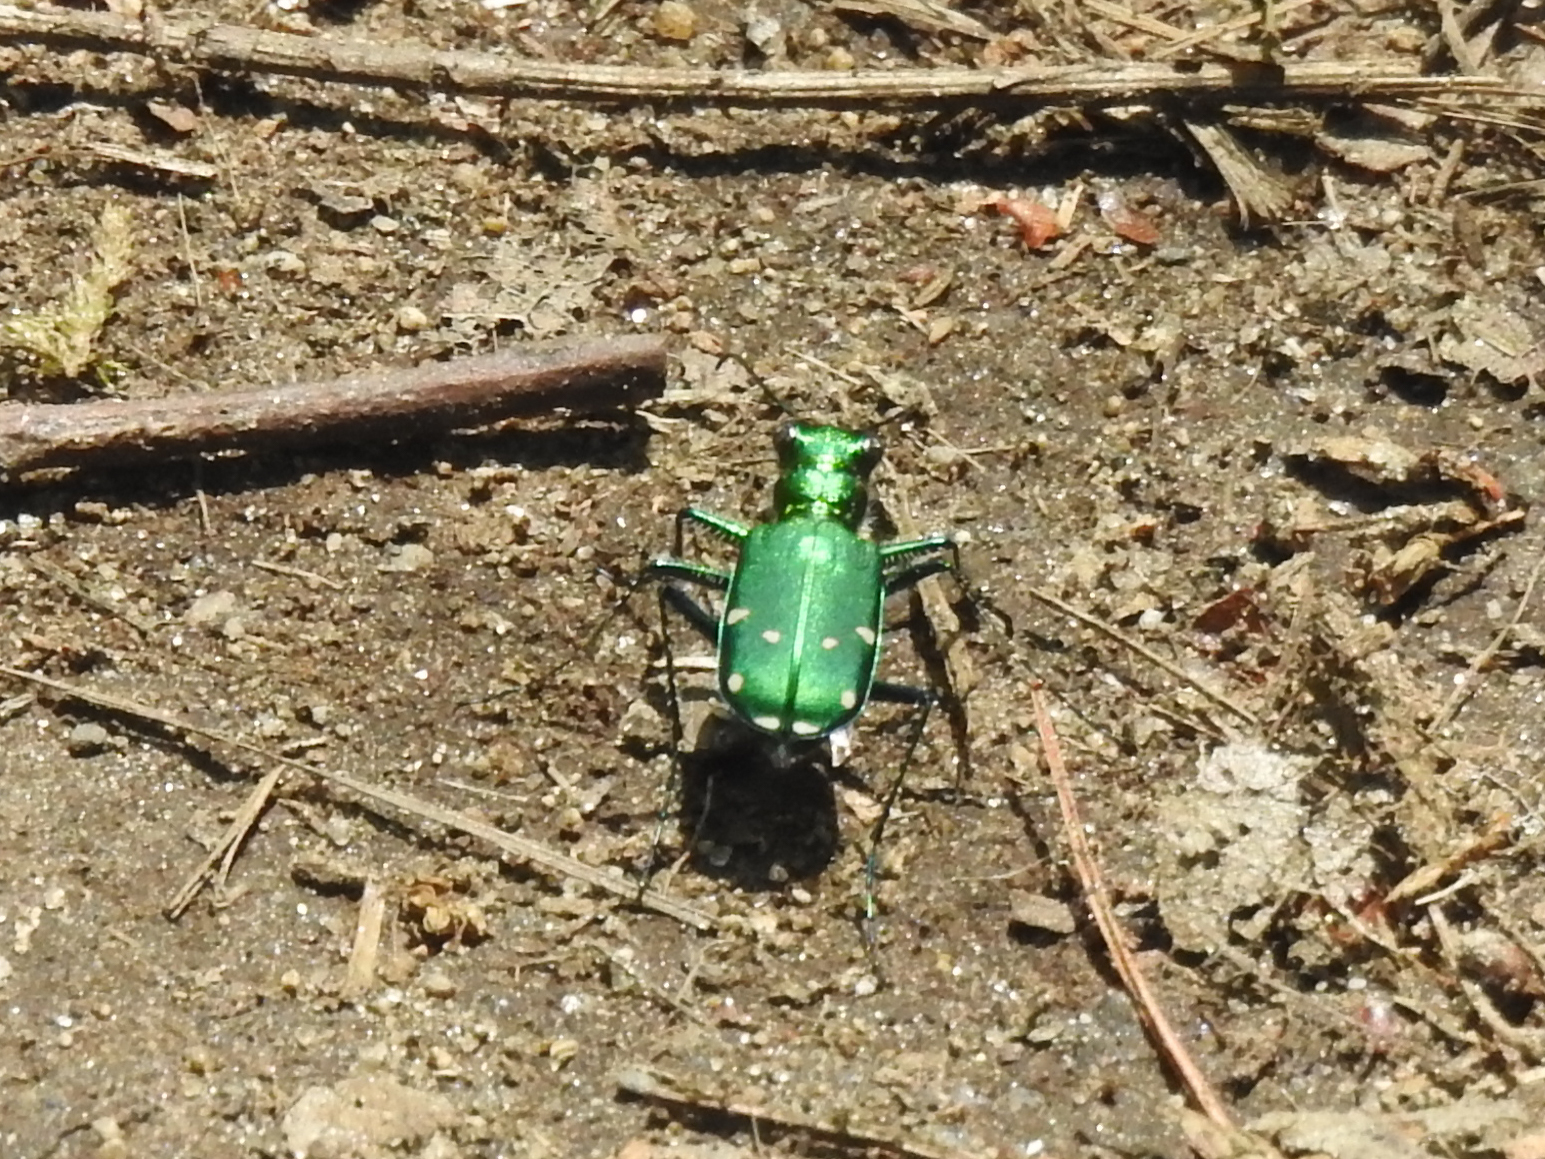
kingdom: Animalia
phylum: Arthropoda
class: Insecta
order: Coleoptera
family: Carabidae
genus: Cicindela
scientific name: Cicindela sexguttata
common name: Six-spotted tiger beetle
